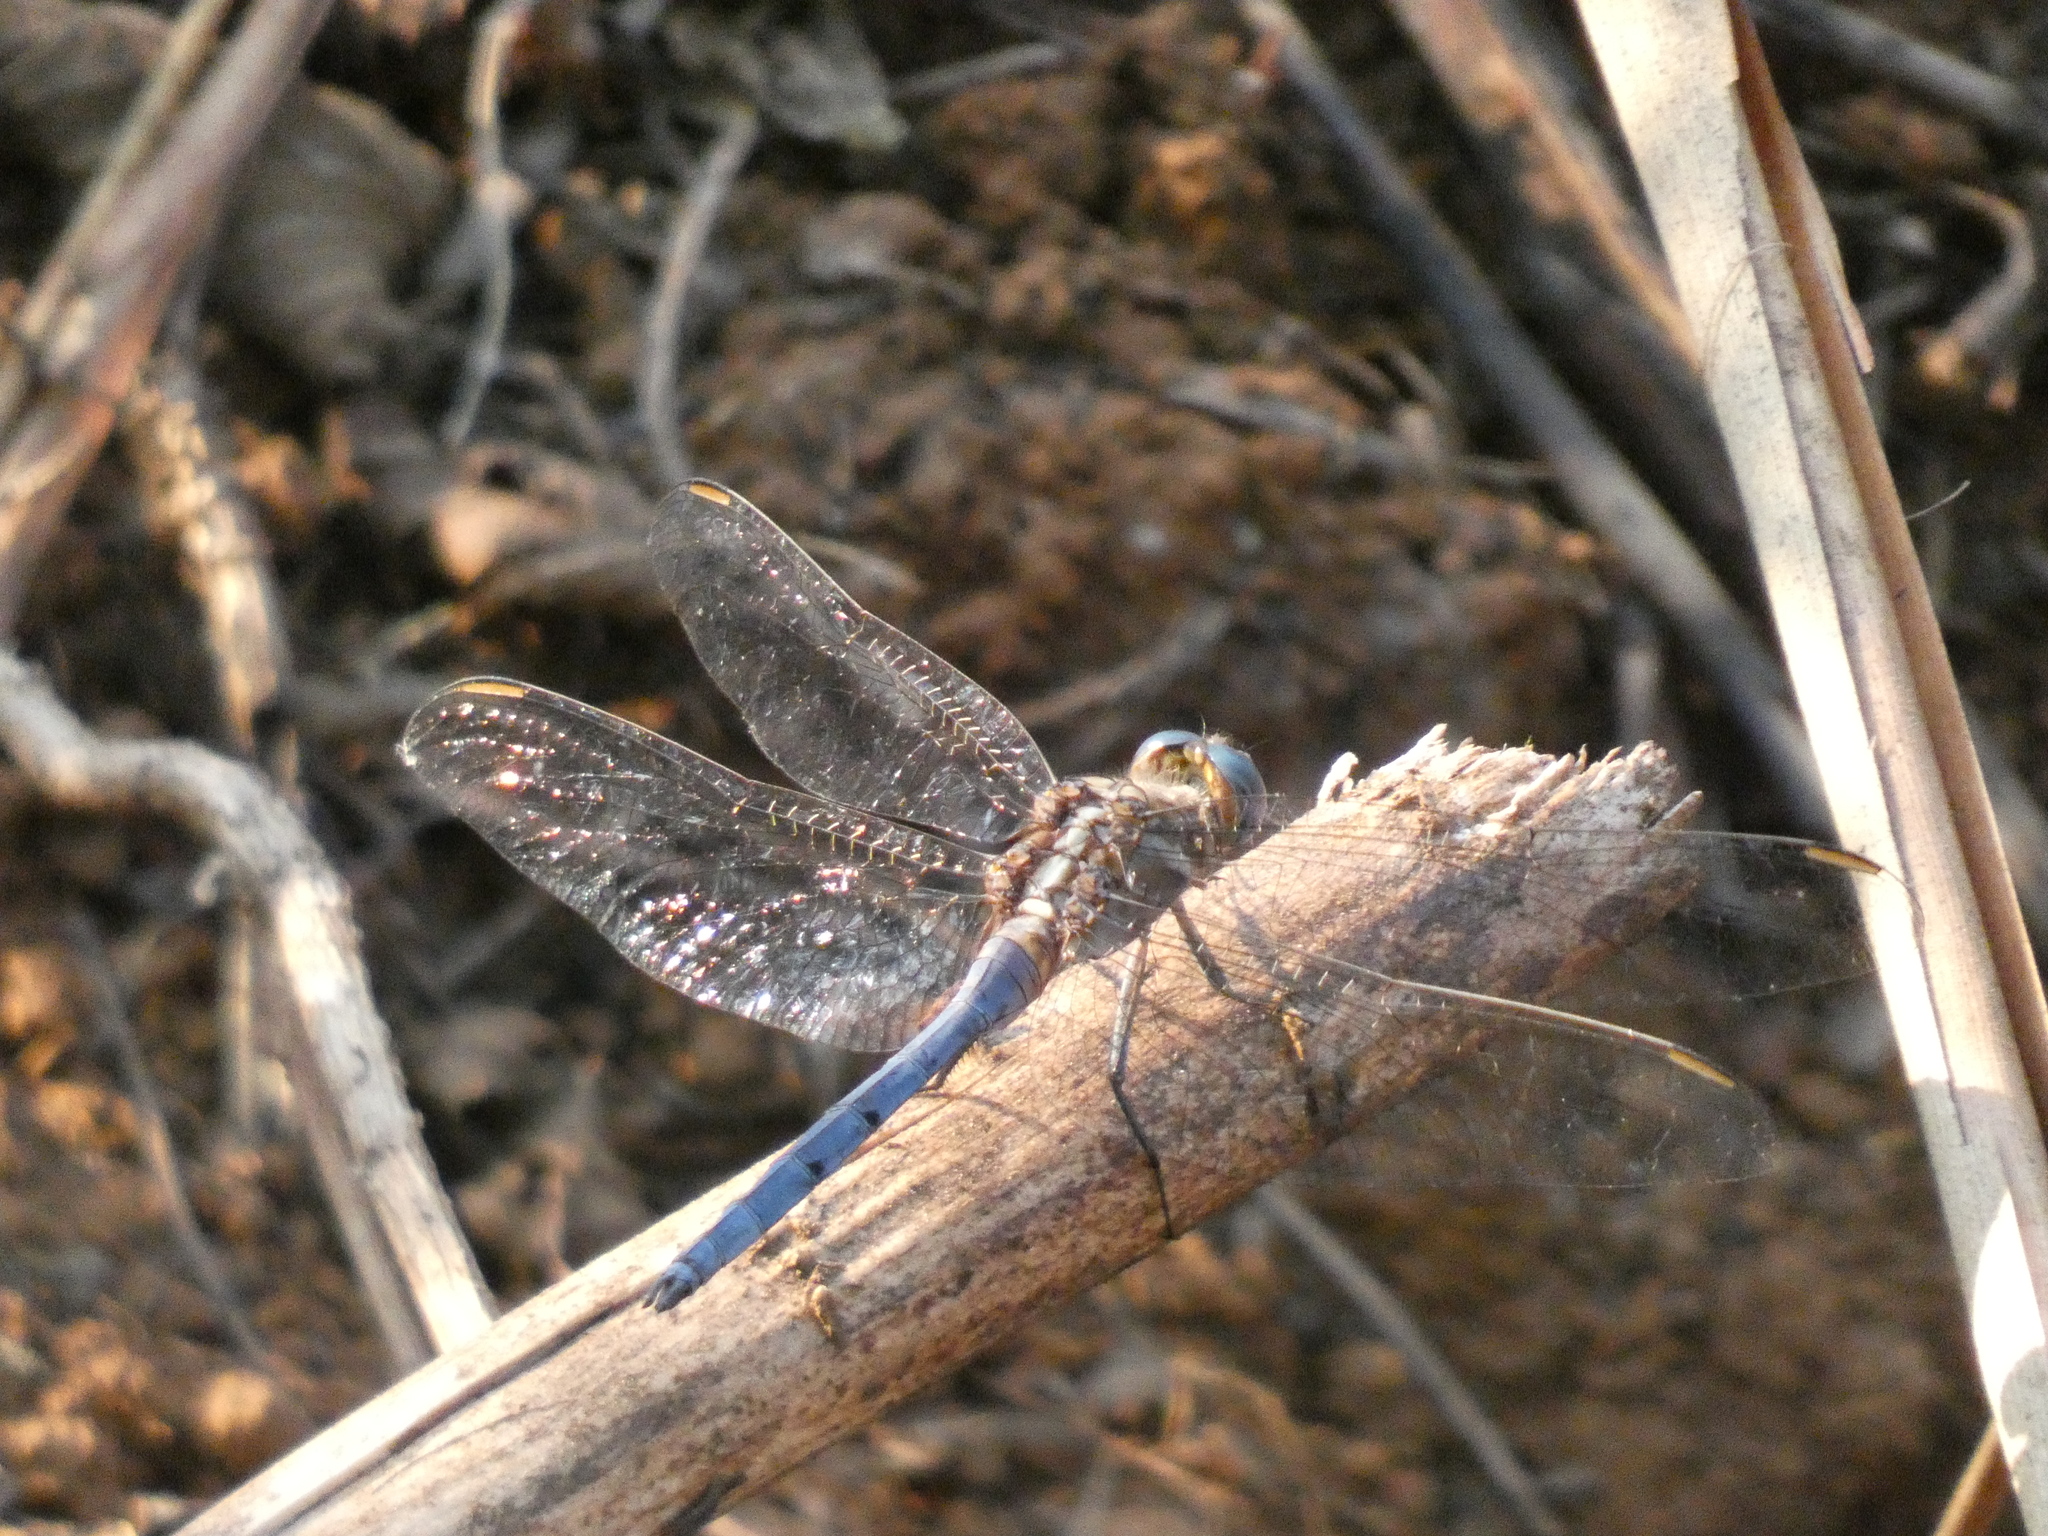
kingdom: Animalia
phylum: Arthropoda
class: Insecta
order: Odonata
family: Libellulidae
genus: Orthetrum
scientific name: Orthetrum chrysostigma
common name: Epaulet skimmer
